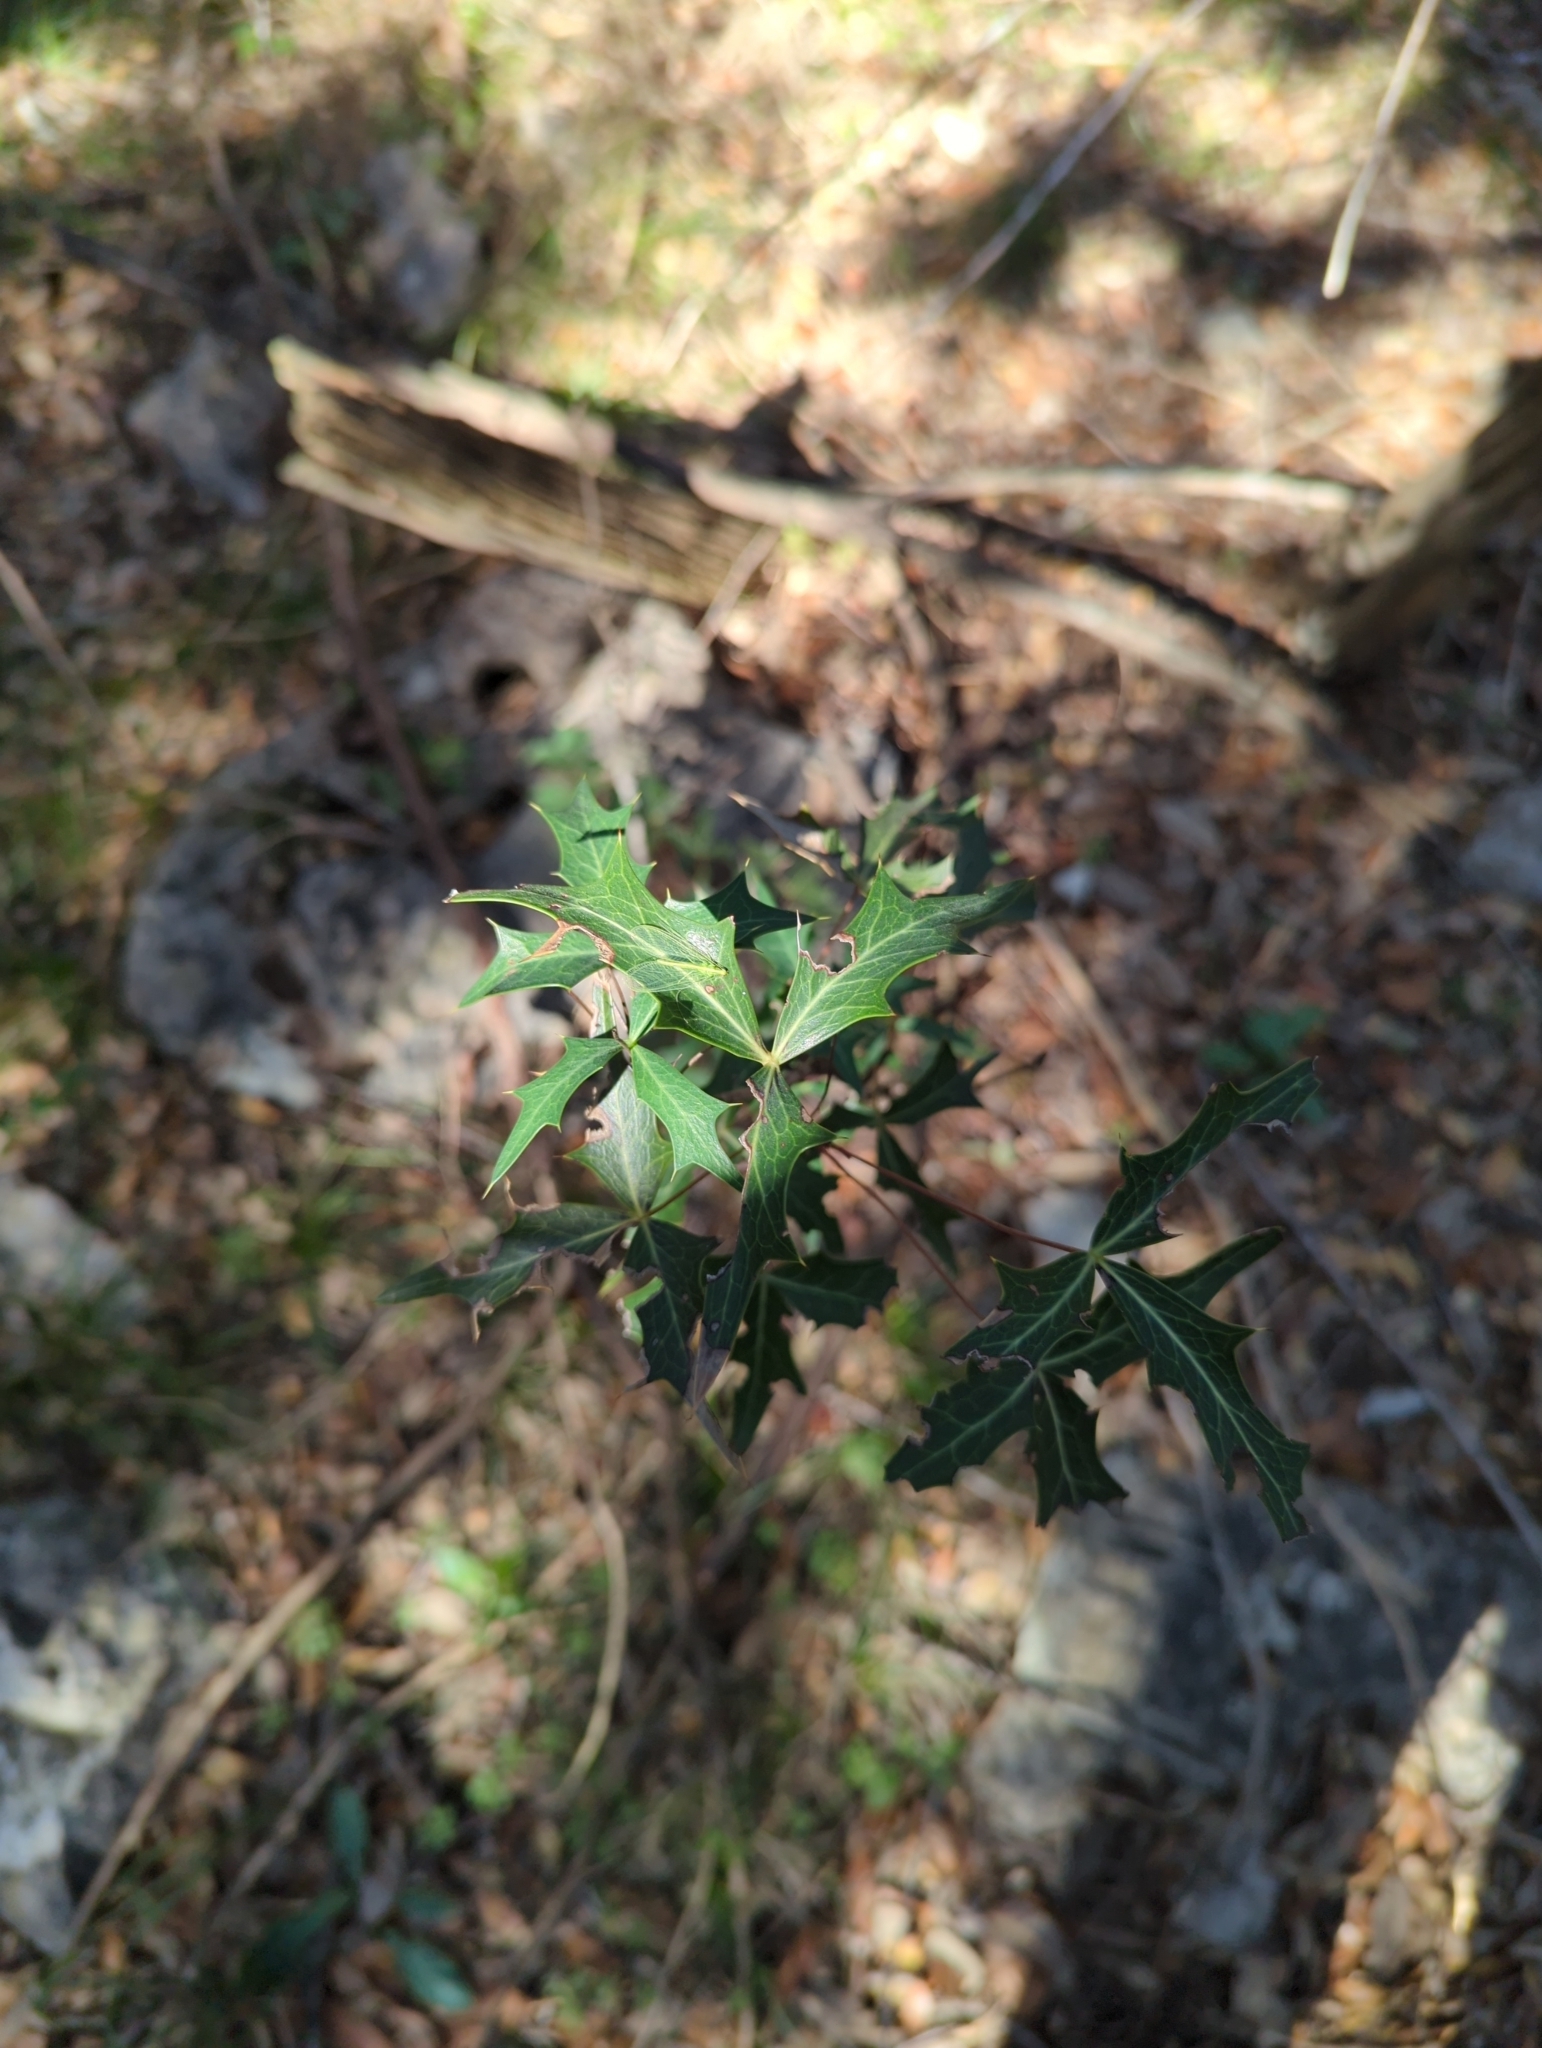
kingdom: Plantae
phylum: Tracheophyta
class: Magnoliopsida
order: Ranunculales
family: Berberidaceae
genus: Alloberberis
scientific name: Alloberberis trifoliolata
